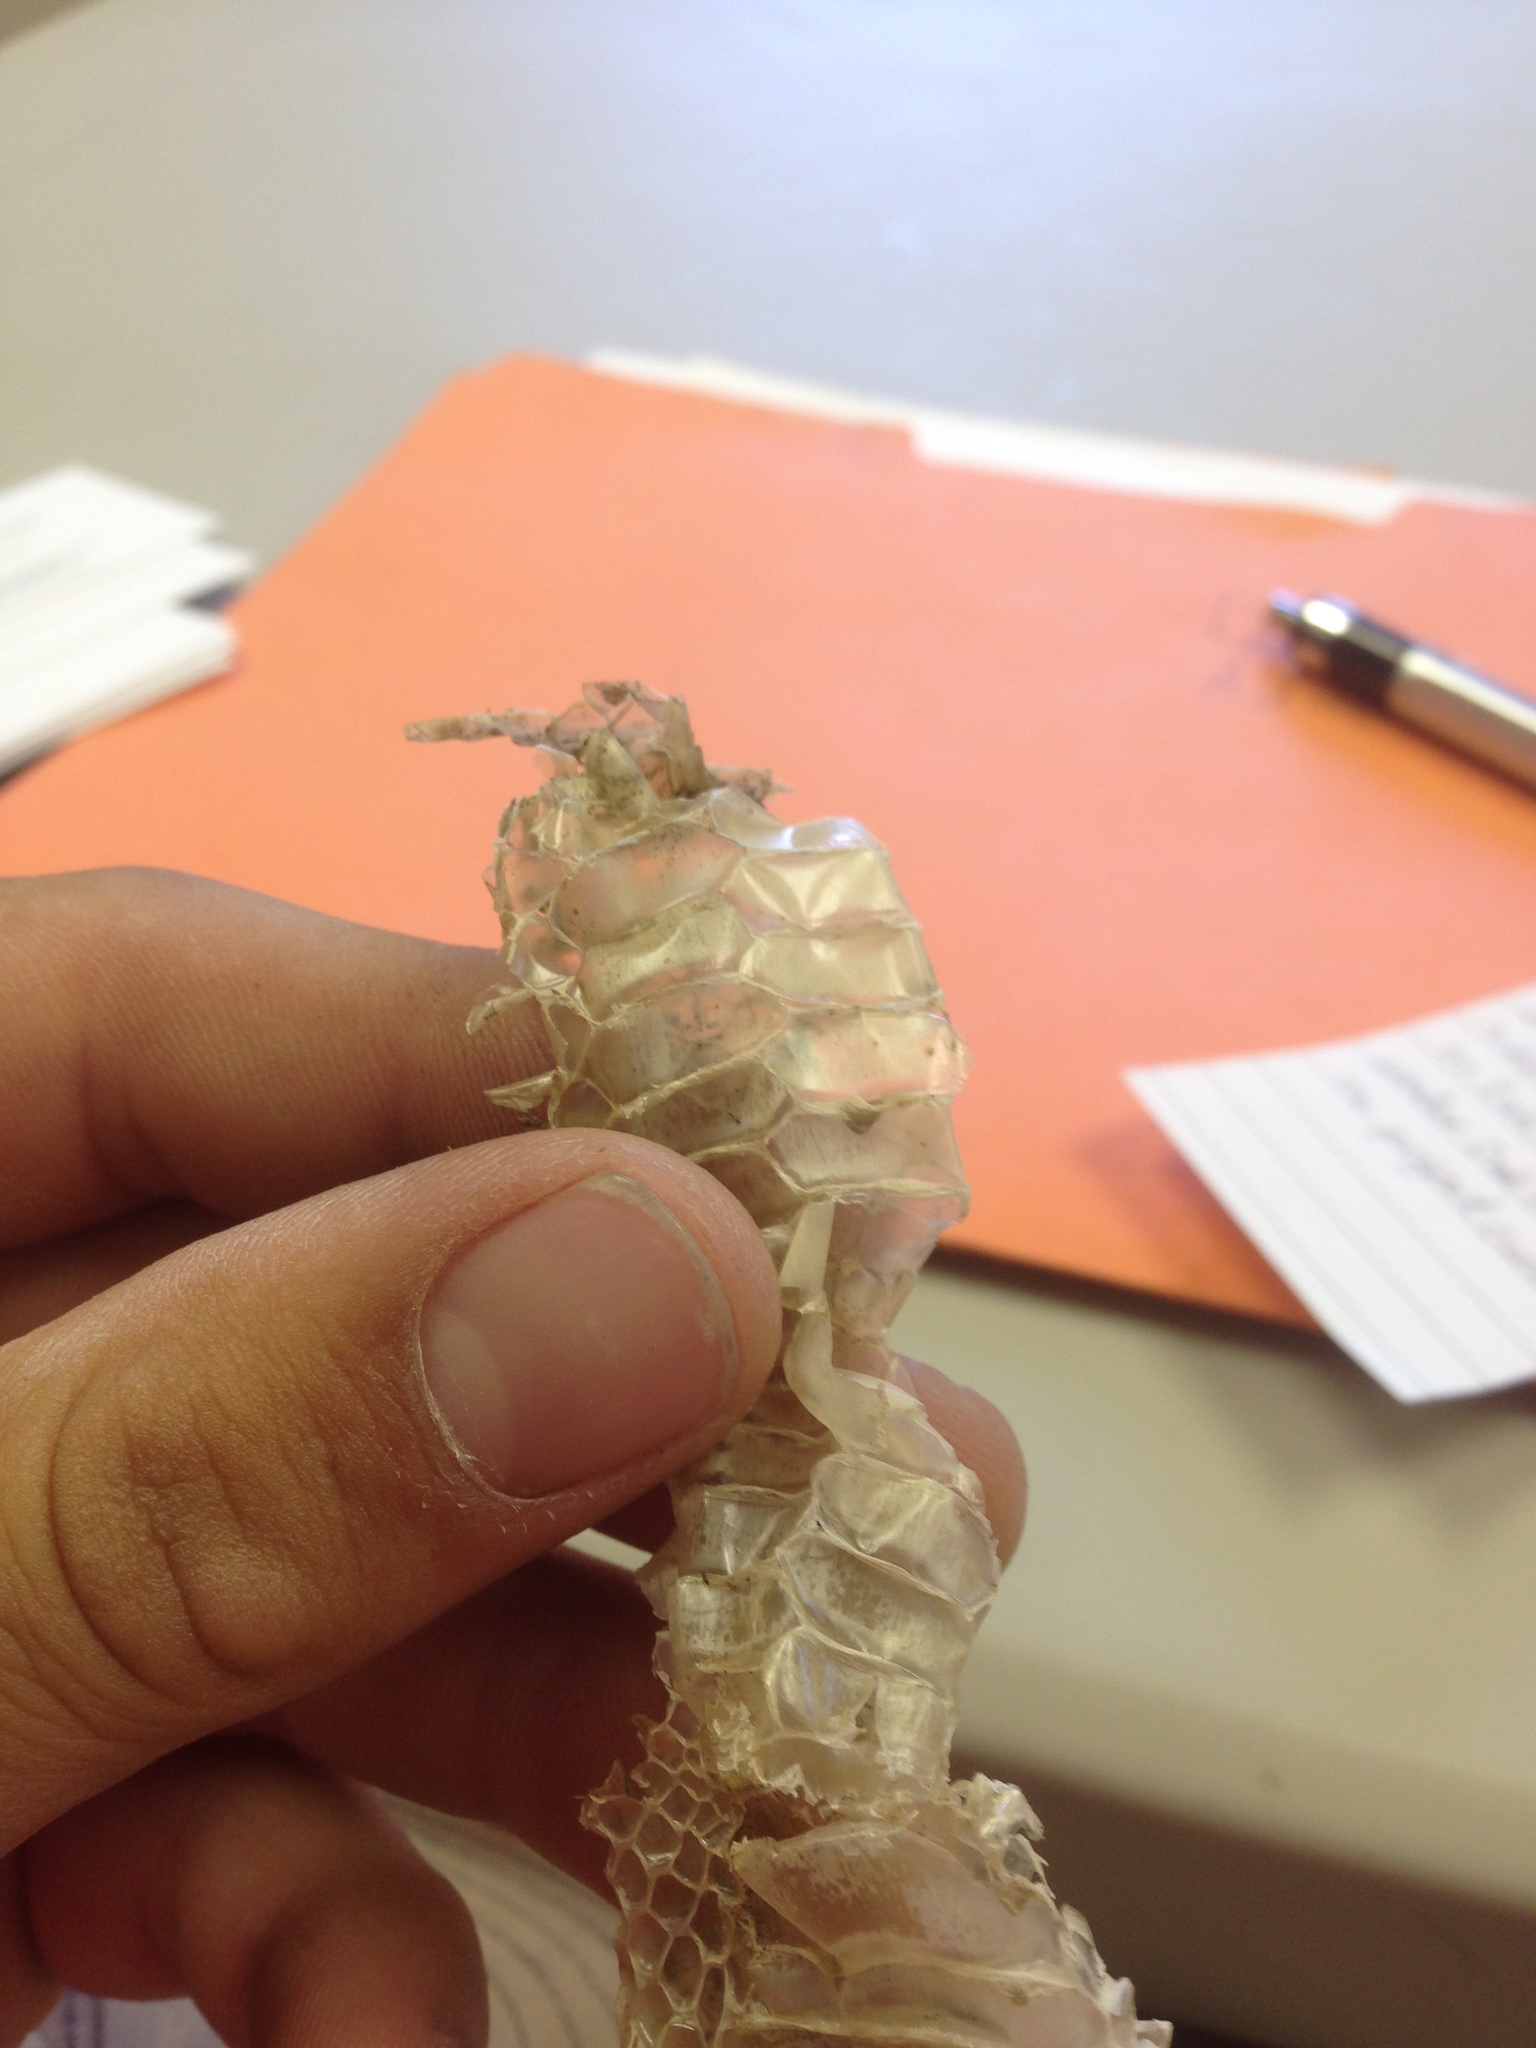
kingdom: Animalia
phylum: Chordata
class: Squamata
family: Colubridae
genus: Lampropeltis
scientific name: Lampropeltis californiae
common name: California kingsnake
